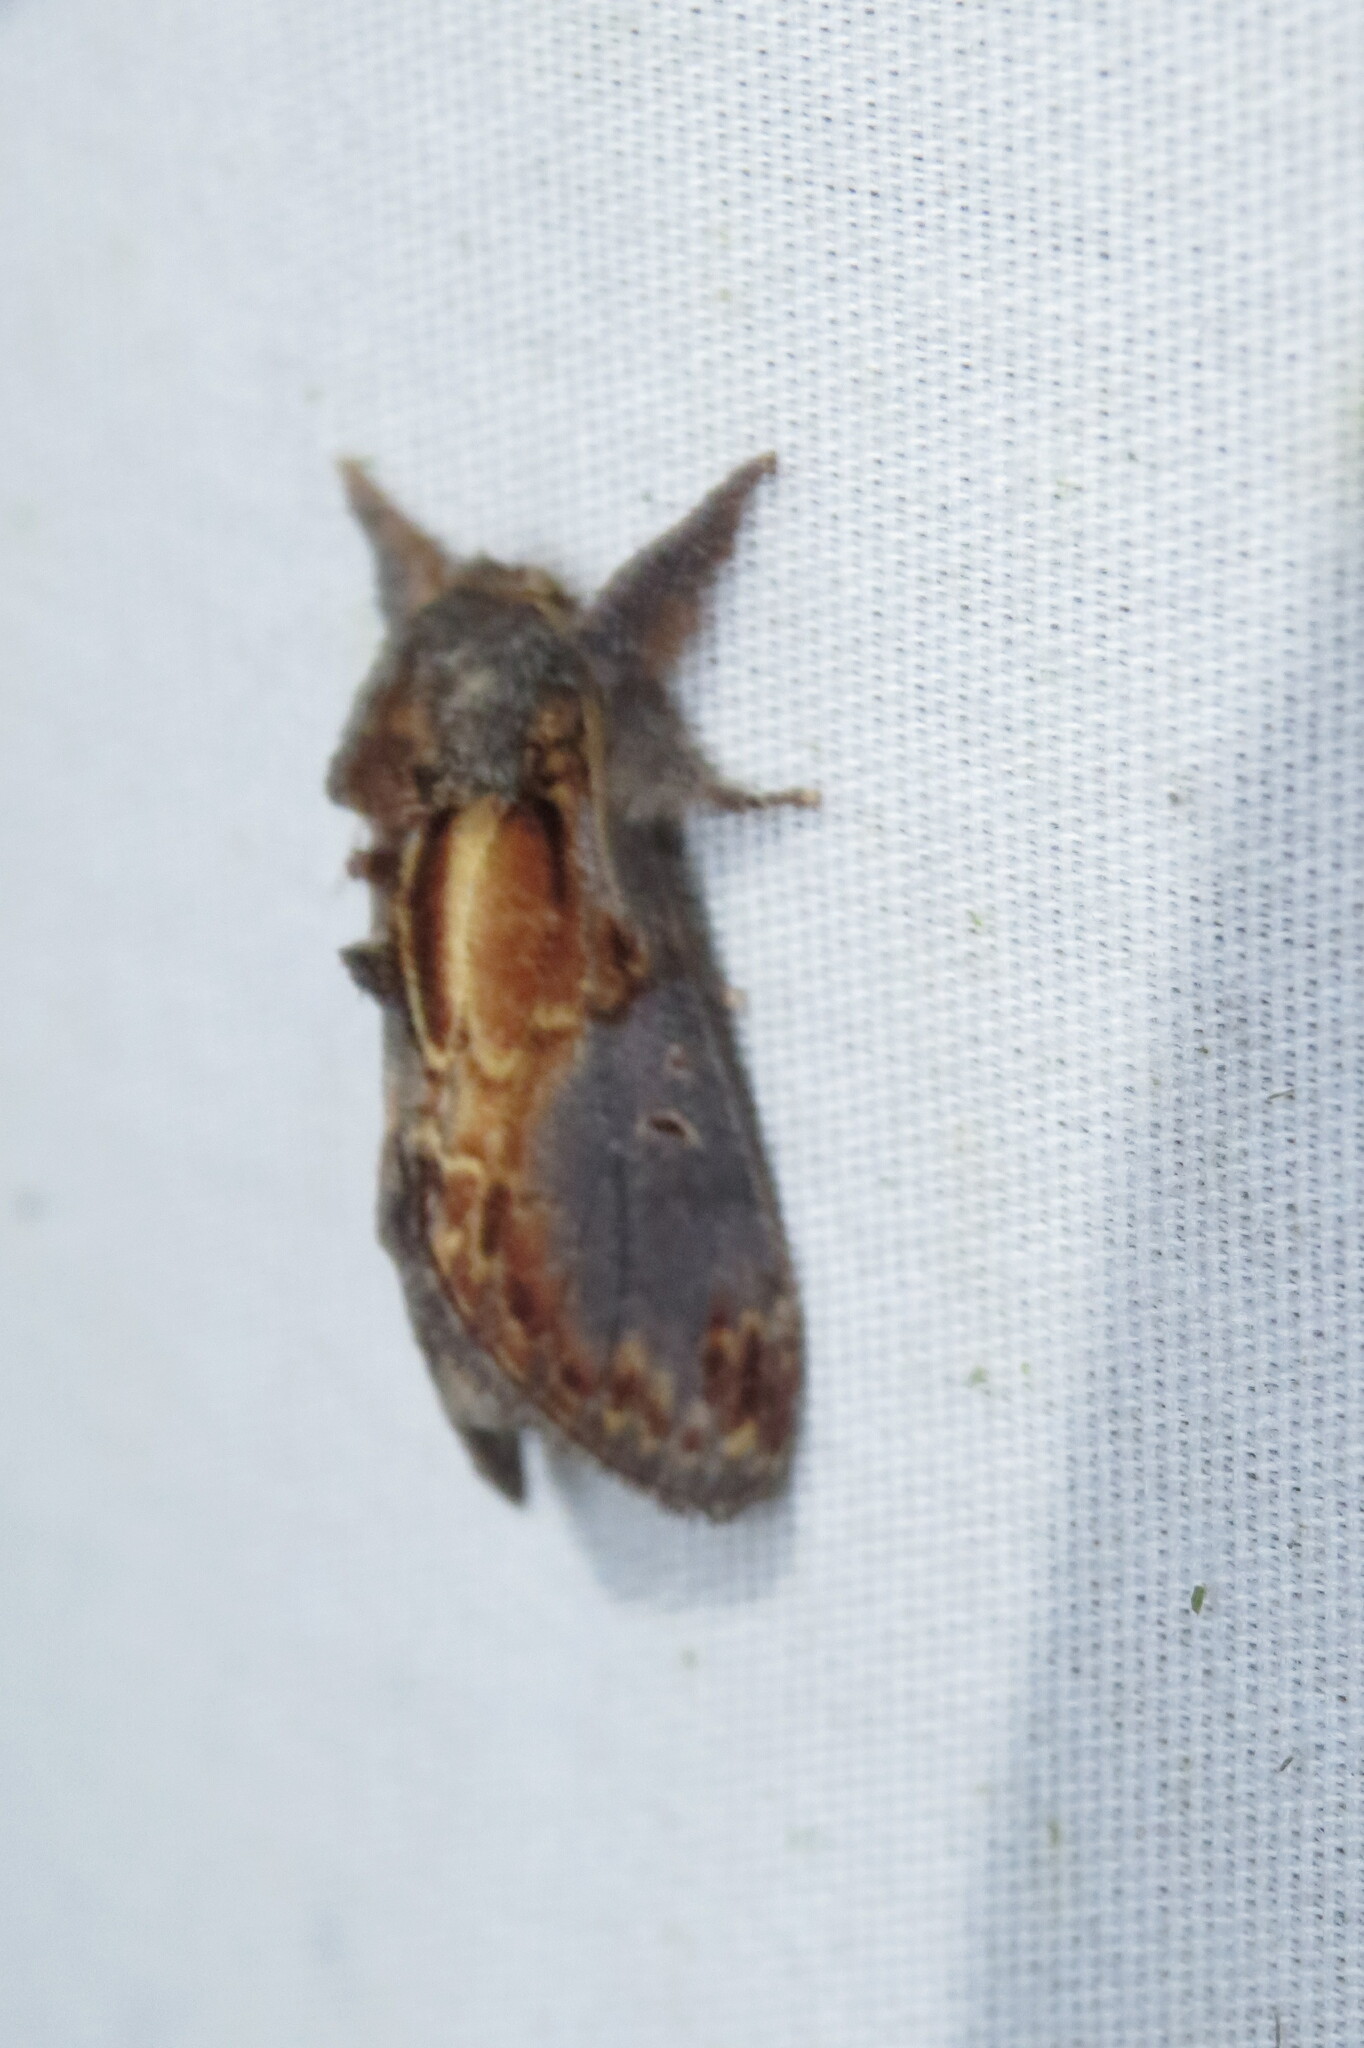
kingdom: Animalia
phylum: Arthropoda
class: Insecta
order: Lepidoptera
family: Notodontidae
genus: Notodonta
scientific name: Notodonta scitipennis
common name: Finned-willow prominent moth
